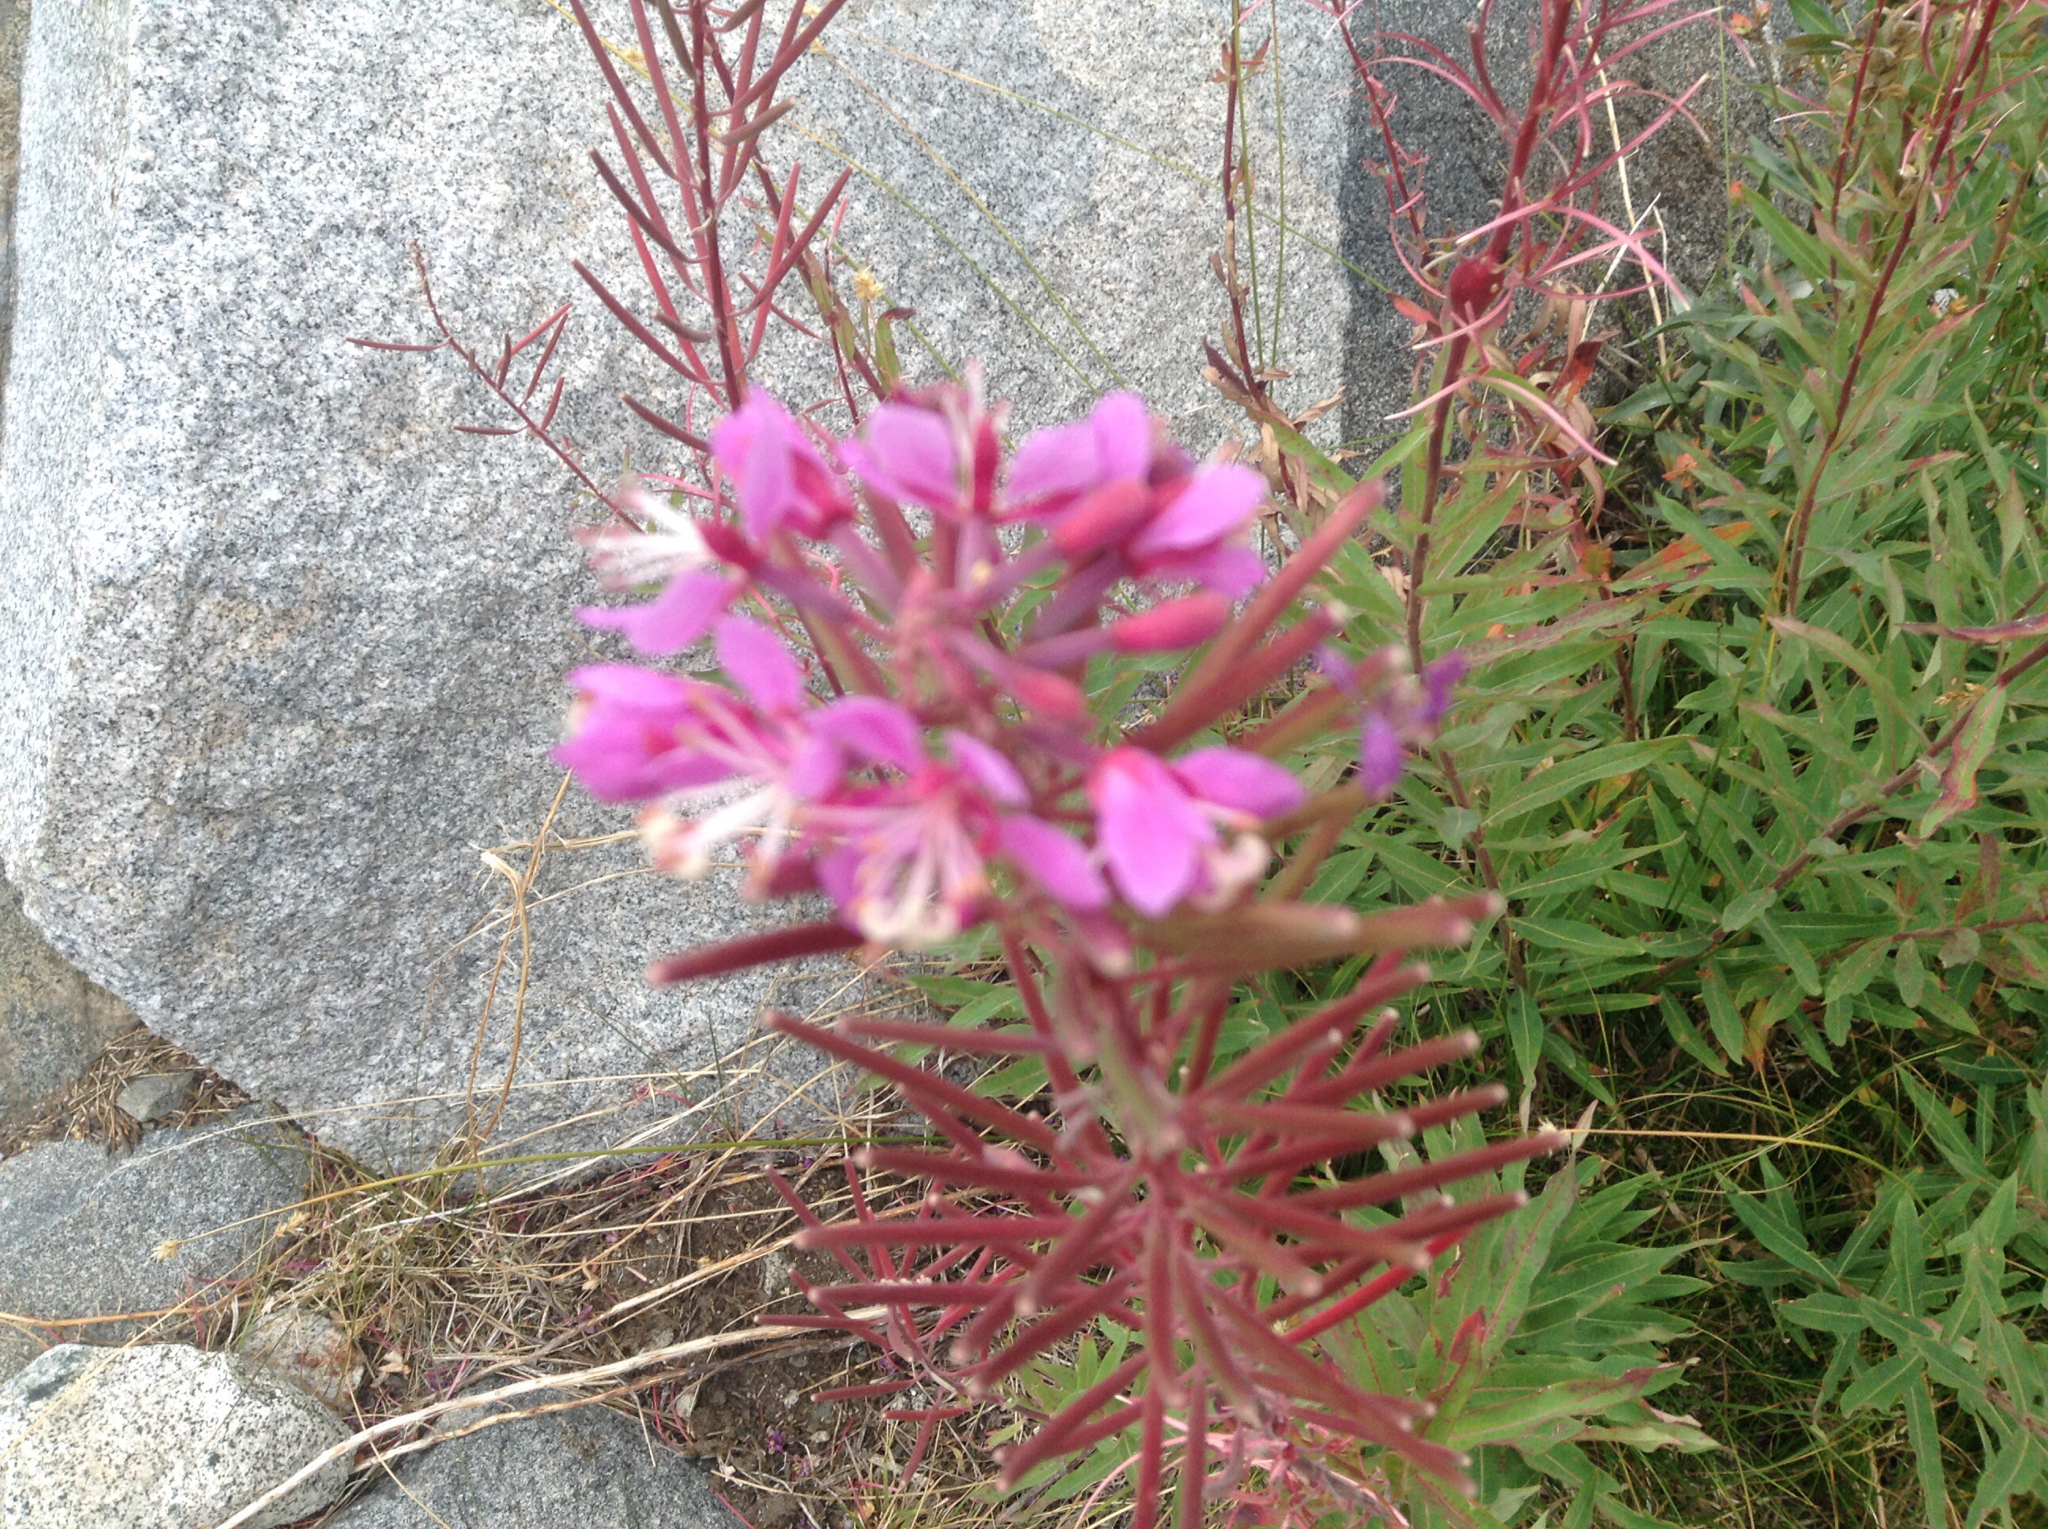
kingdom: Plantae
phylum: Tracheophyta
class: Magnoliopsida
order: Myrtales
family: Onagraceae
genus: Chamaenerion
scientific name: Chamaenerion angustifolium
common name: Fireweed
